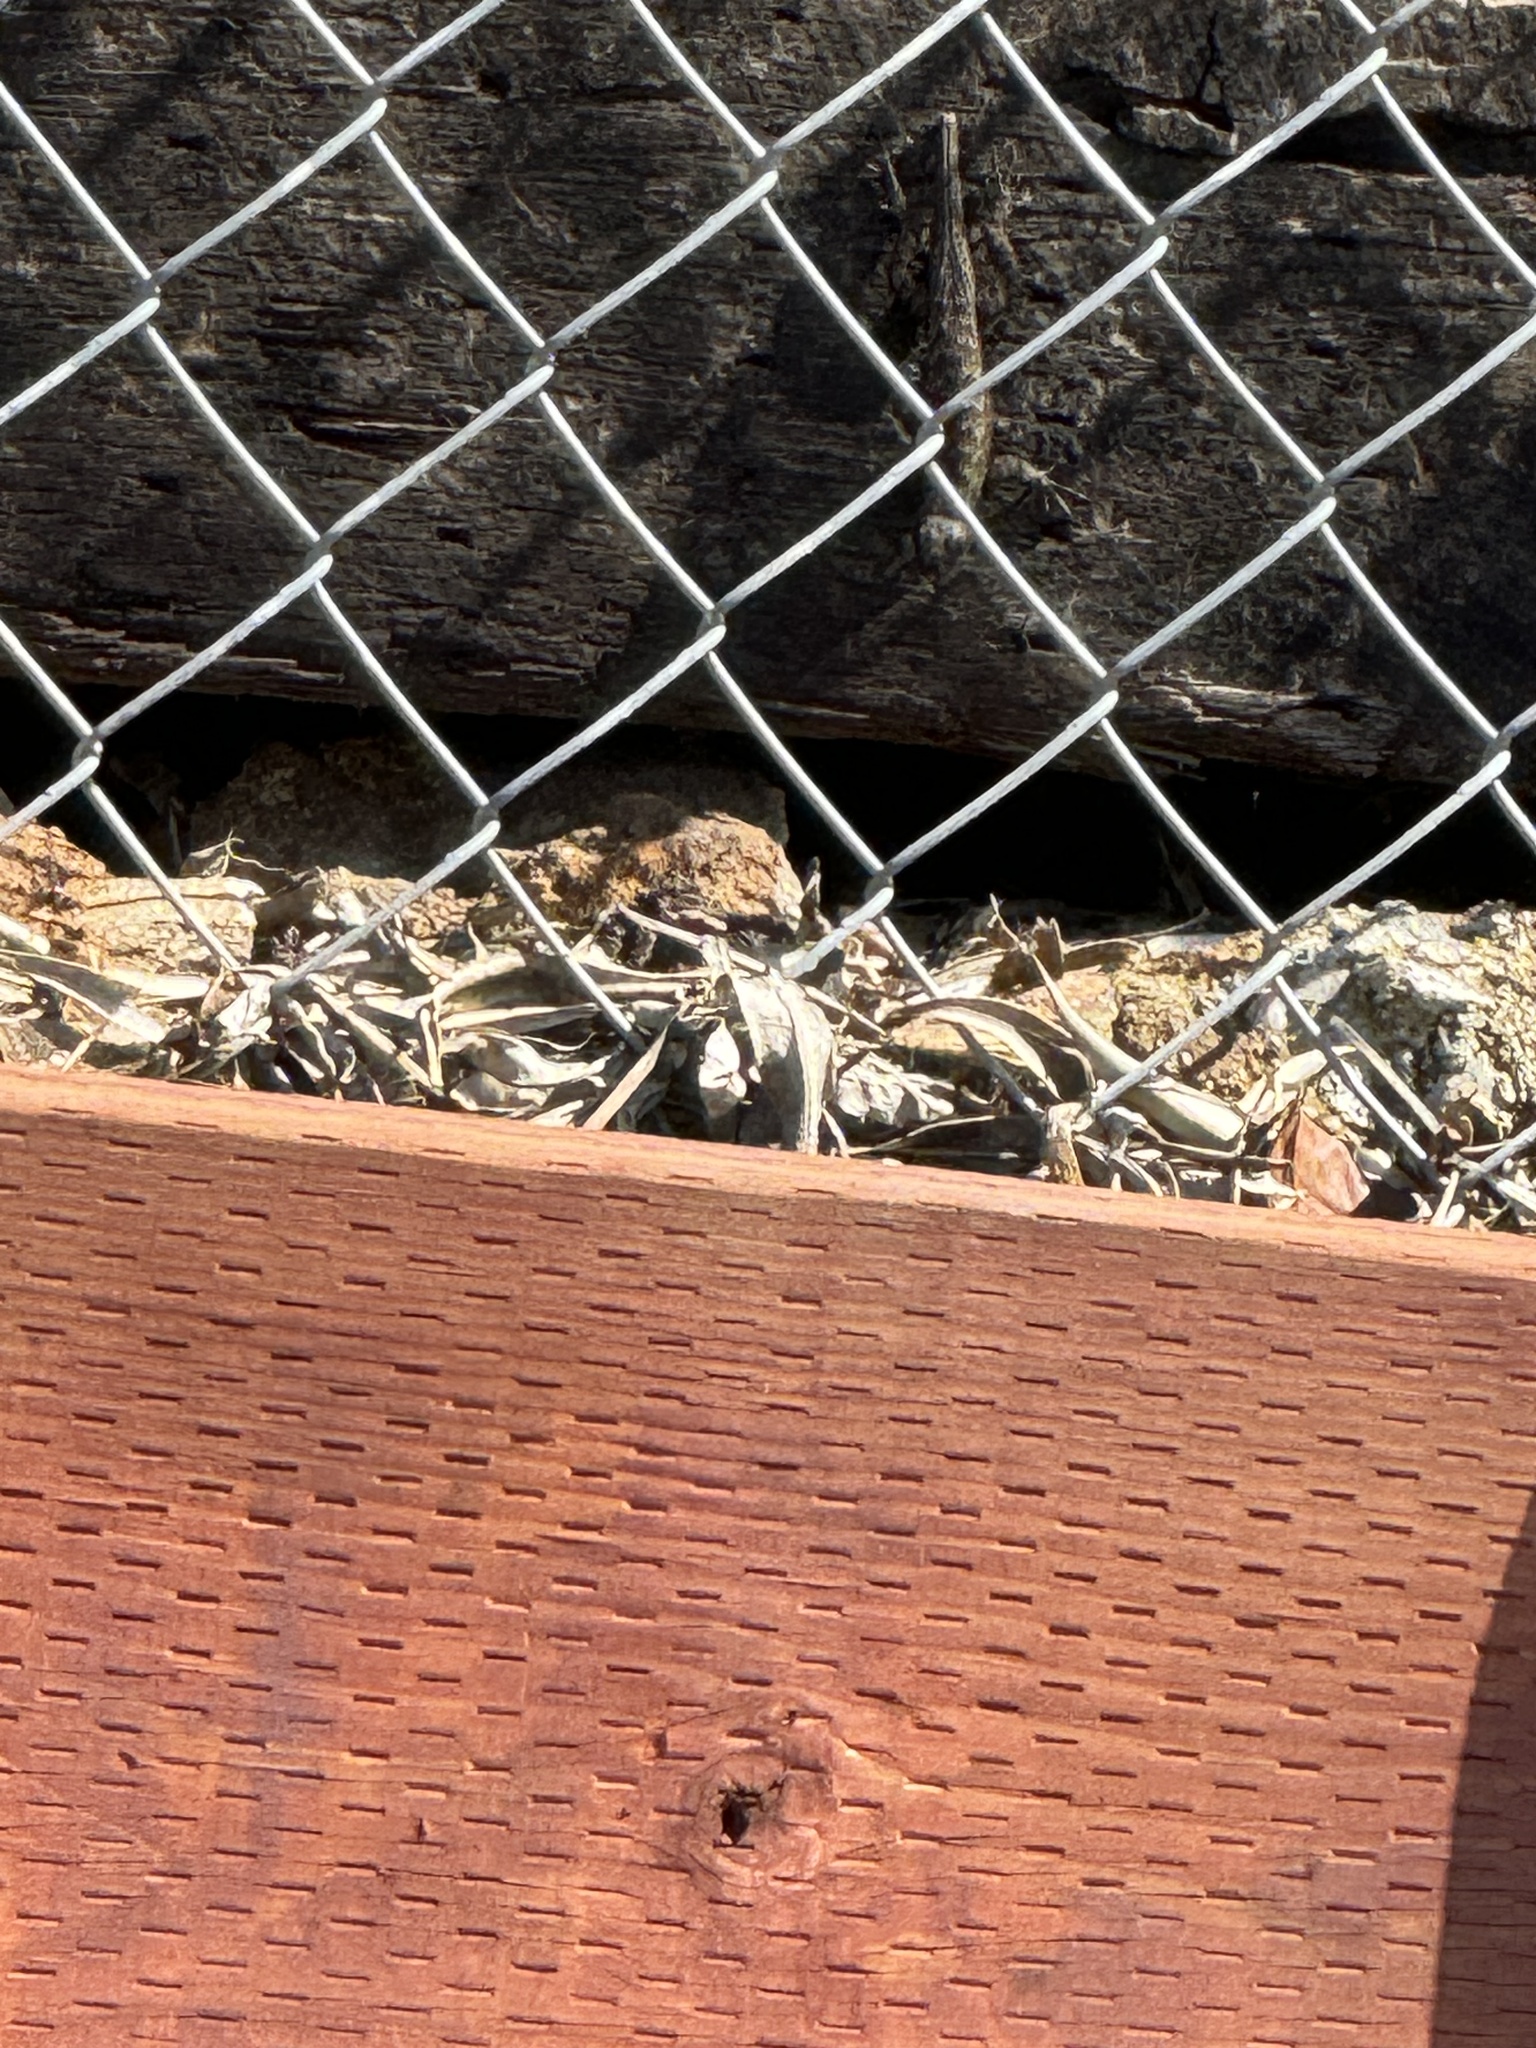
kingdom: Animalia
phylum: Chordata
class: Squamata
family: Phrynosomatidae
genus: Sceloporus
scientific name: Sceloporus occidentalis
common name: Western fence lizard
